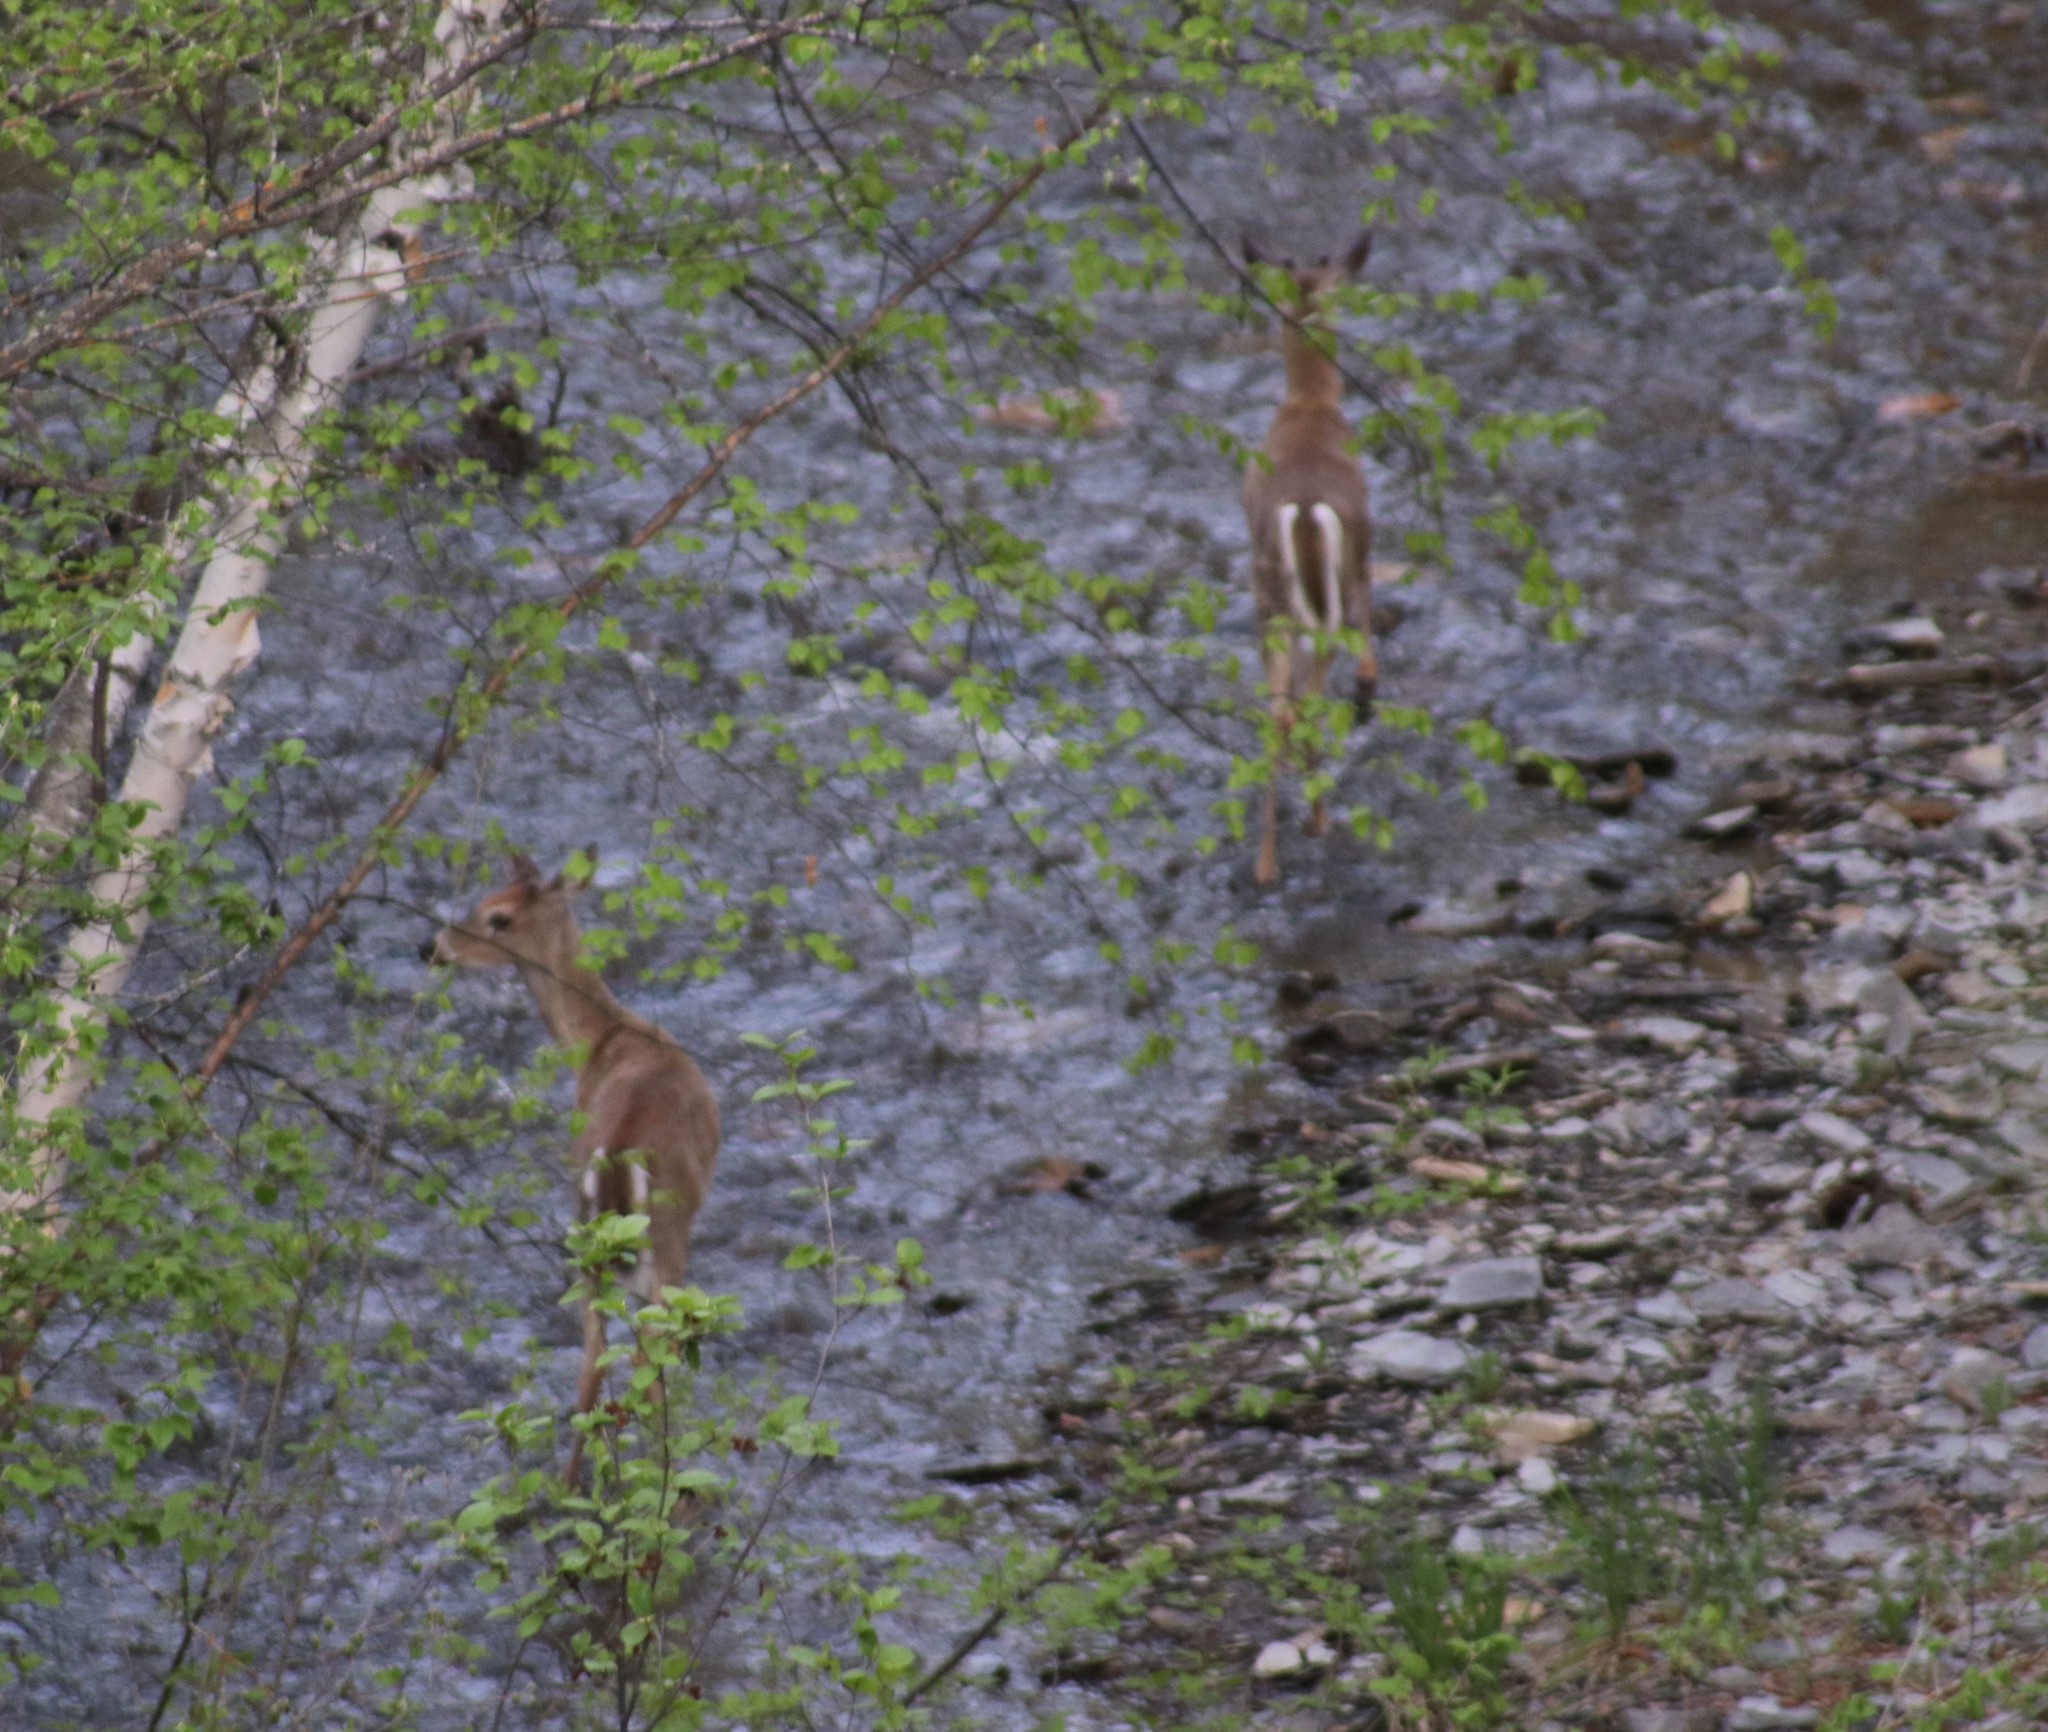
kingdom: Animalia
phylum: Chordata
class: Mammalia
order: Artiodactyla
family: Cervidae
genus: Odocoileus
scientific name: Odocoileus virginianus
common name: White-tailed deer
